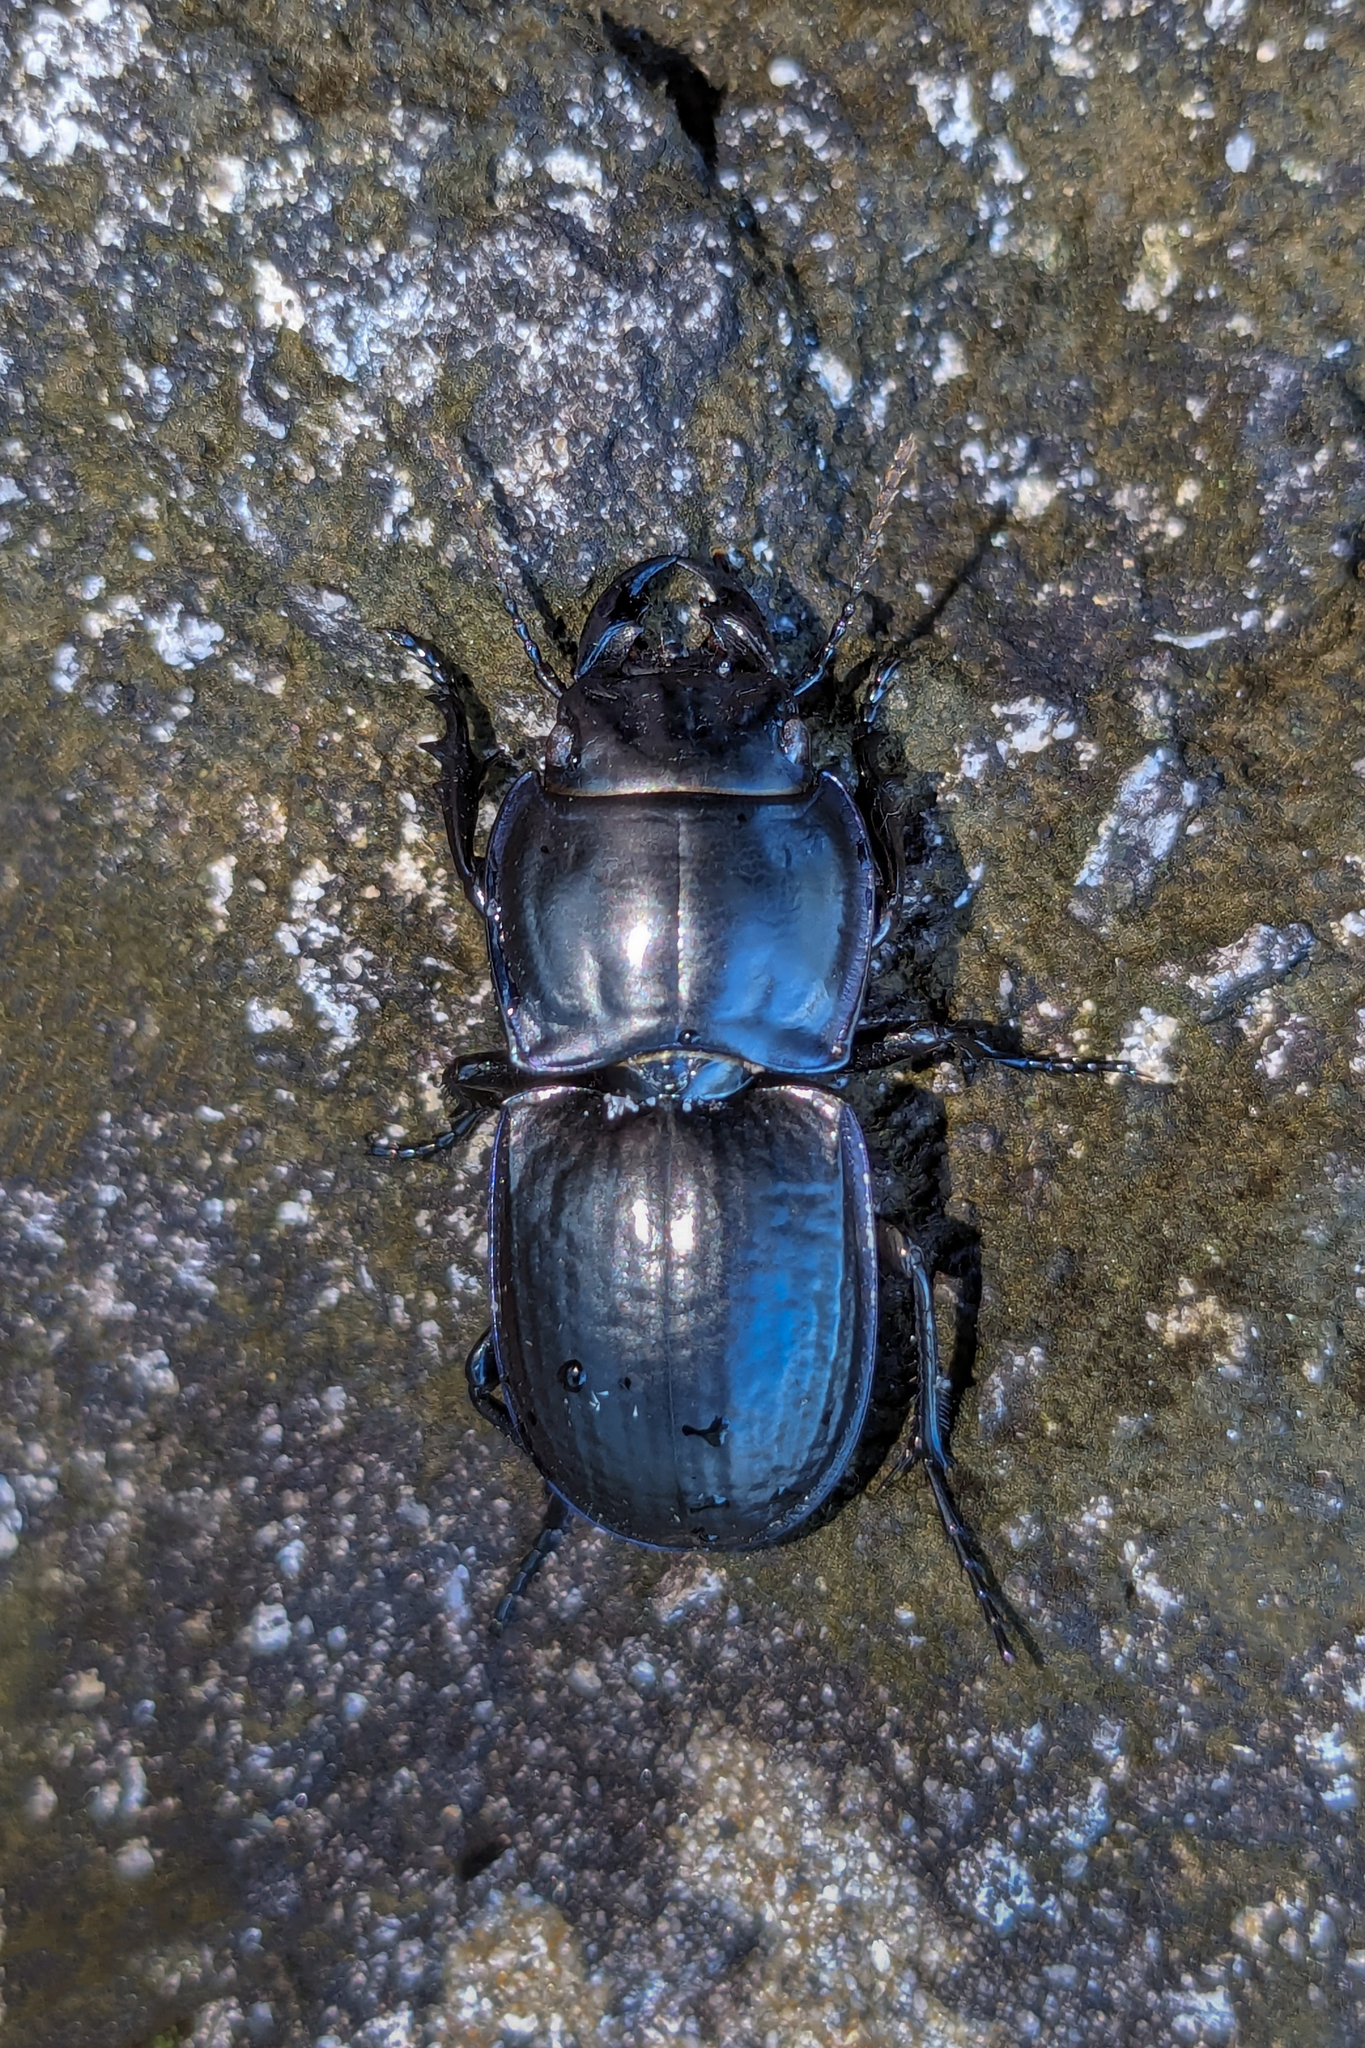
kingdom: Animalia
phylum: Arthropoda
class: Insecta
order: Coleoptera
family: Carabidae
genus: Pasimachus
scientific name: Pasimachus sublaevis
